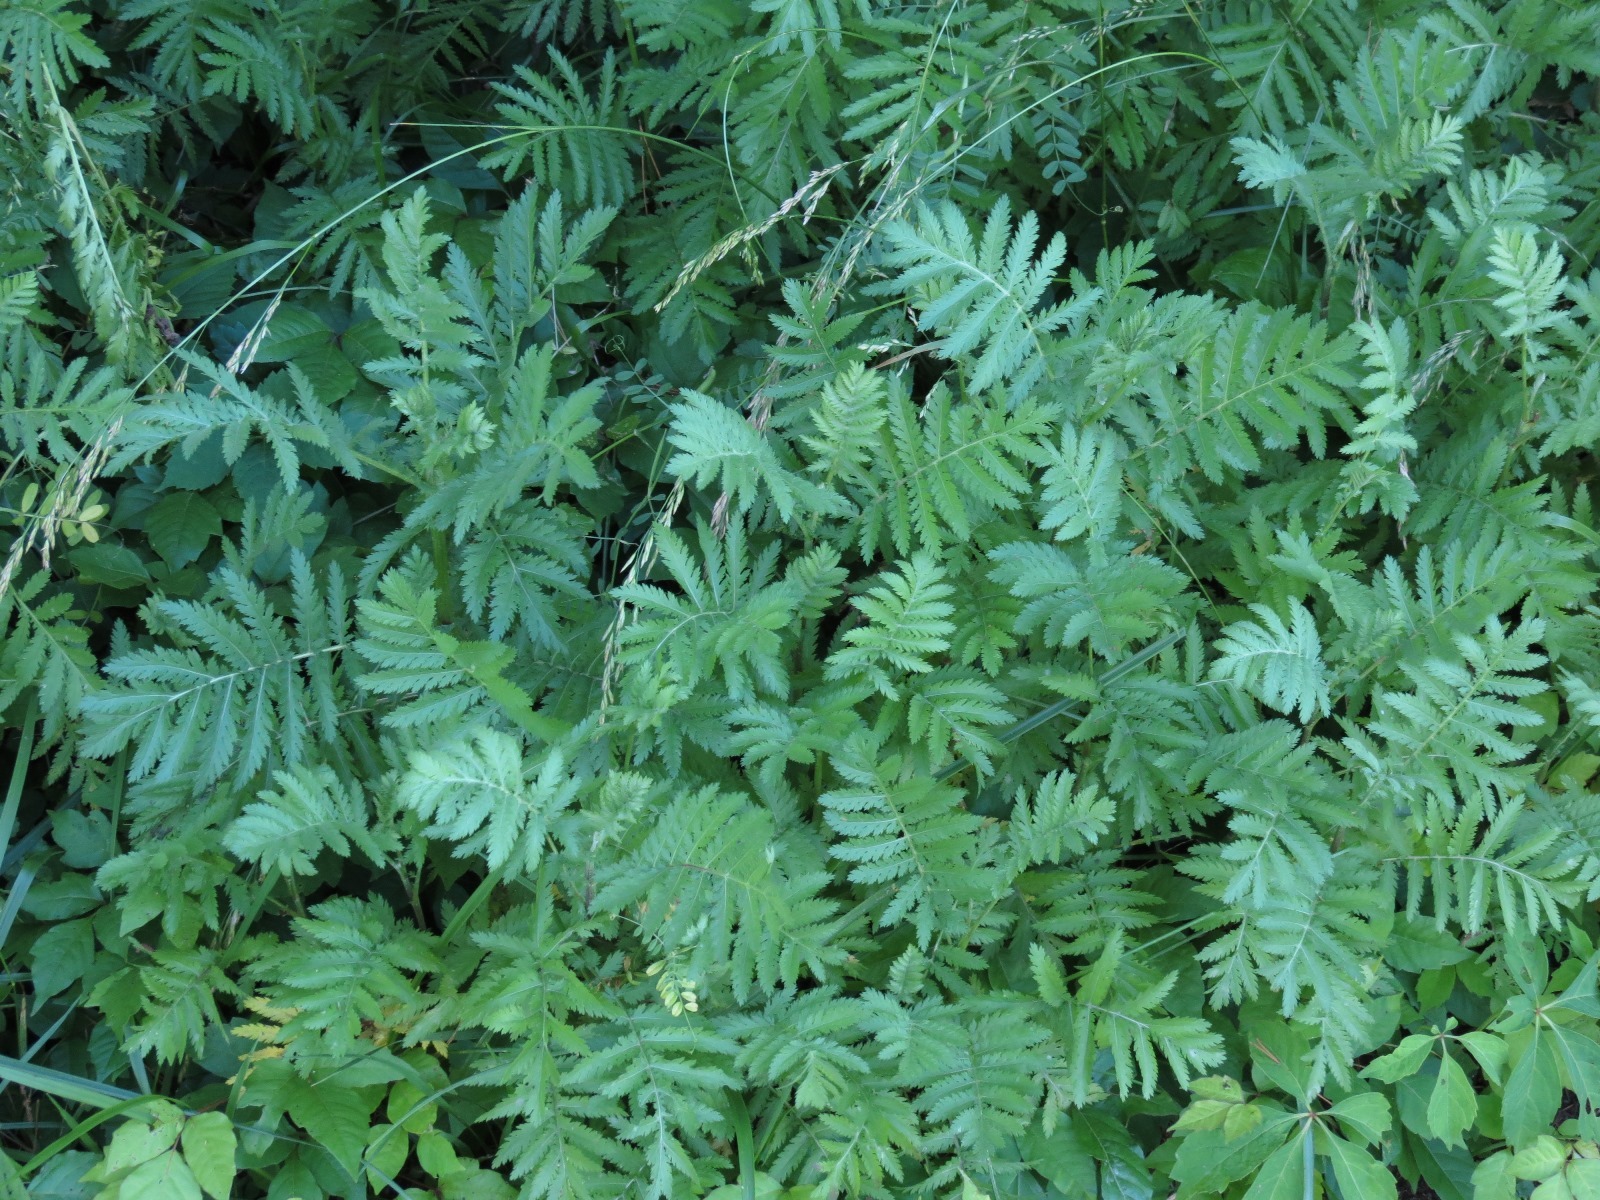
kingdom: Plantae
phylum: Tracheophyta
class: Magnoliopsida
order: Asterales
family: Asteraceae
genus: Tanacetum
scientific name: Tanacetum vulgare
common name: Common tansy
